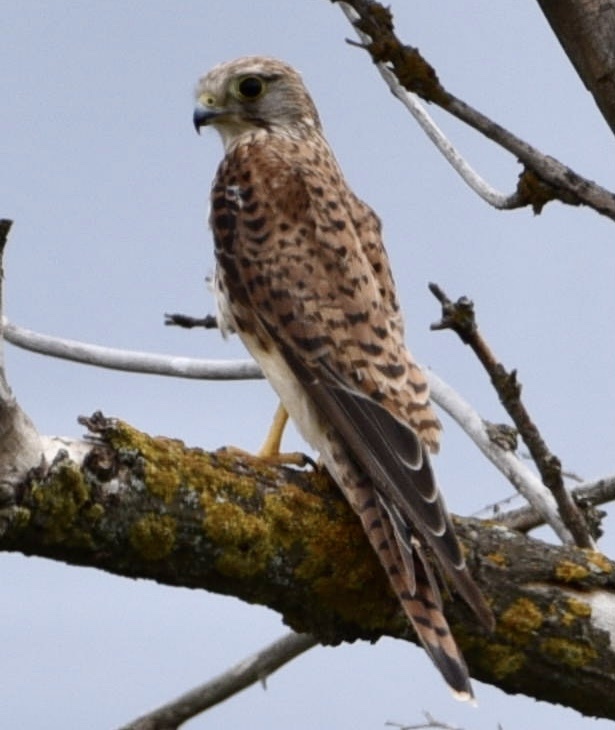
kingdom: Animalia
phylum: Chordata
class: Aves
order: Falconiformes
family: Falconidae
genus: Falco
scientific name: Falco tinnunculus
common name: Common kestrel
